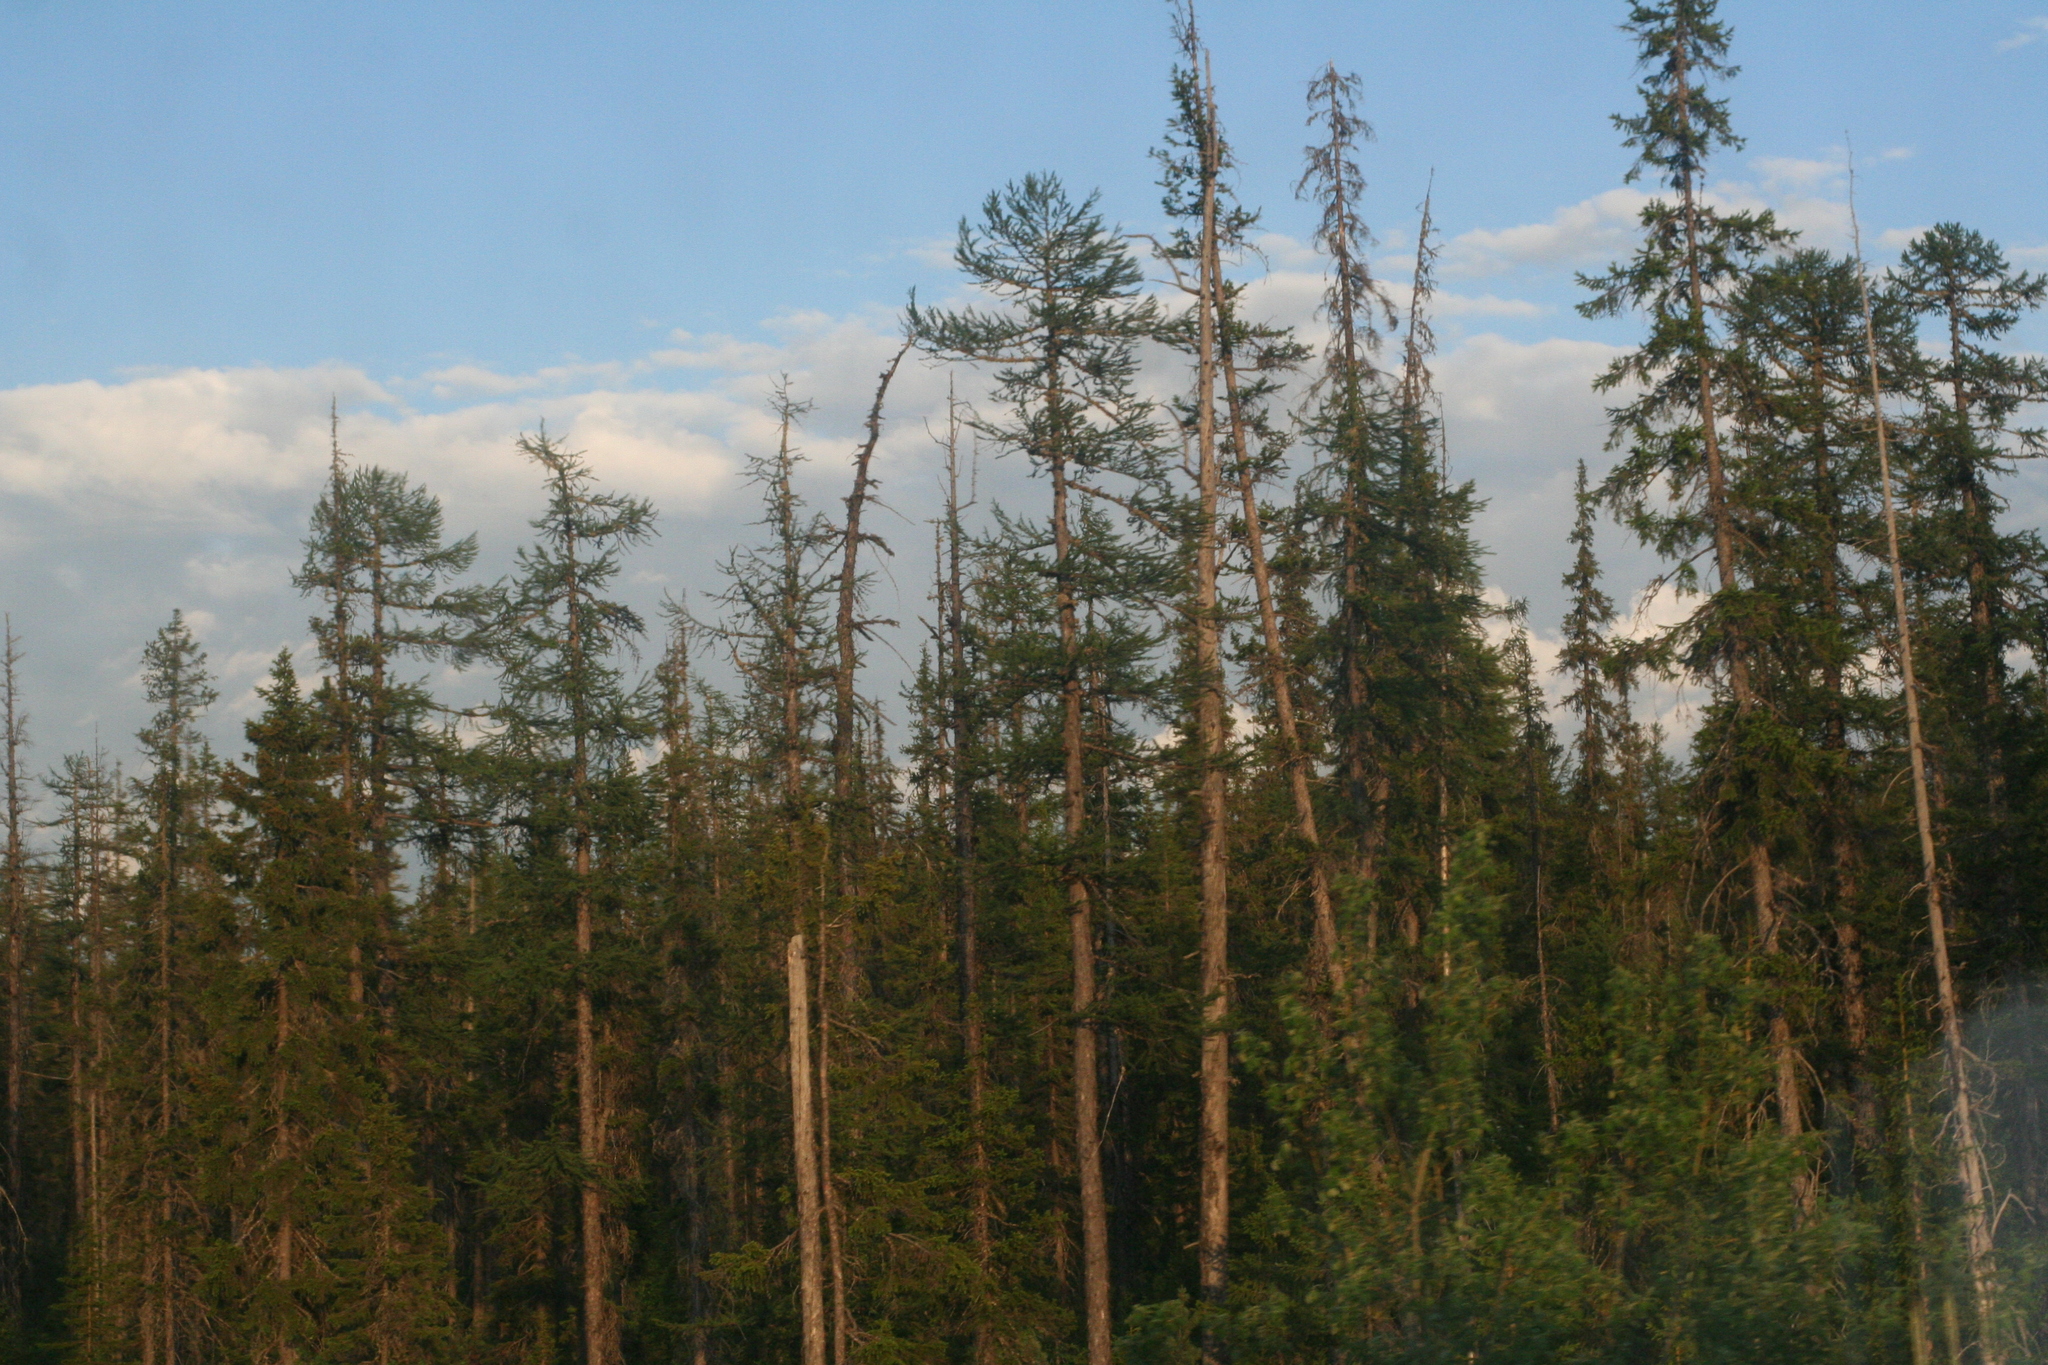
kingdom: Plantae
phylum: Tracheophyta
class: Pinopsida
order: Pinales
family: Pinaceae
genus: Larix
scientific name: Larix gmelinii
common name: Dahurian larch
